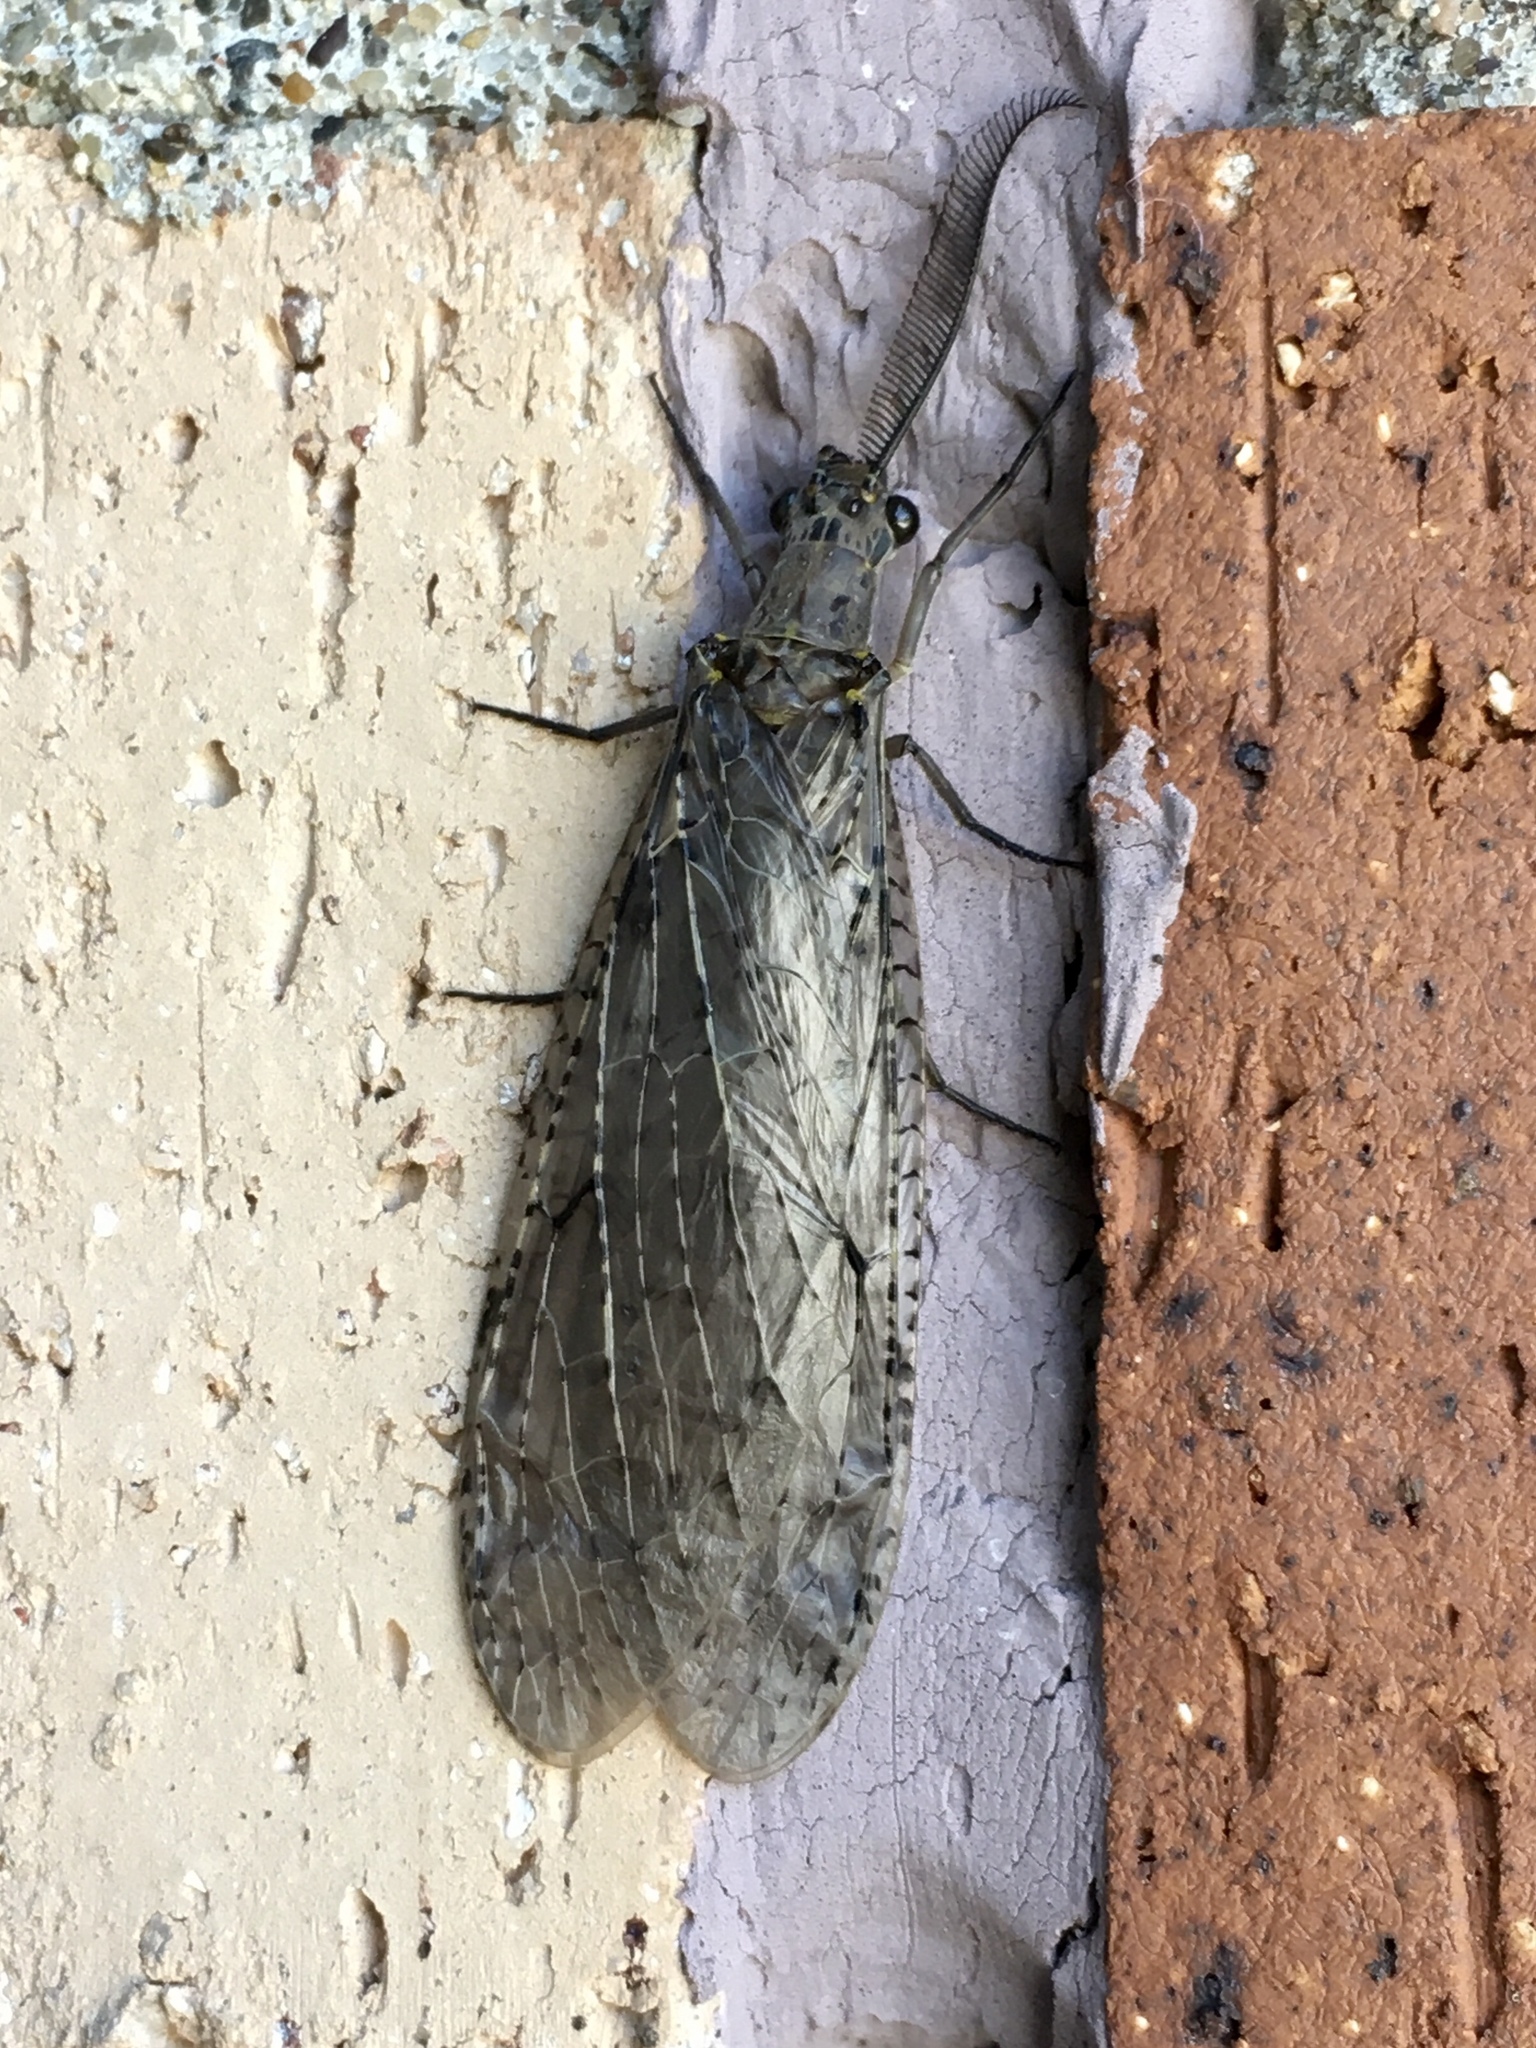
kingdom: Animalia
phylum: Arthropoda
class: Insecta
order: Megaloptera
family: Corydalidae
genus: Chauliodes
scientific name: Chauliodes rastricornis
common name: Spring fishfly
